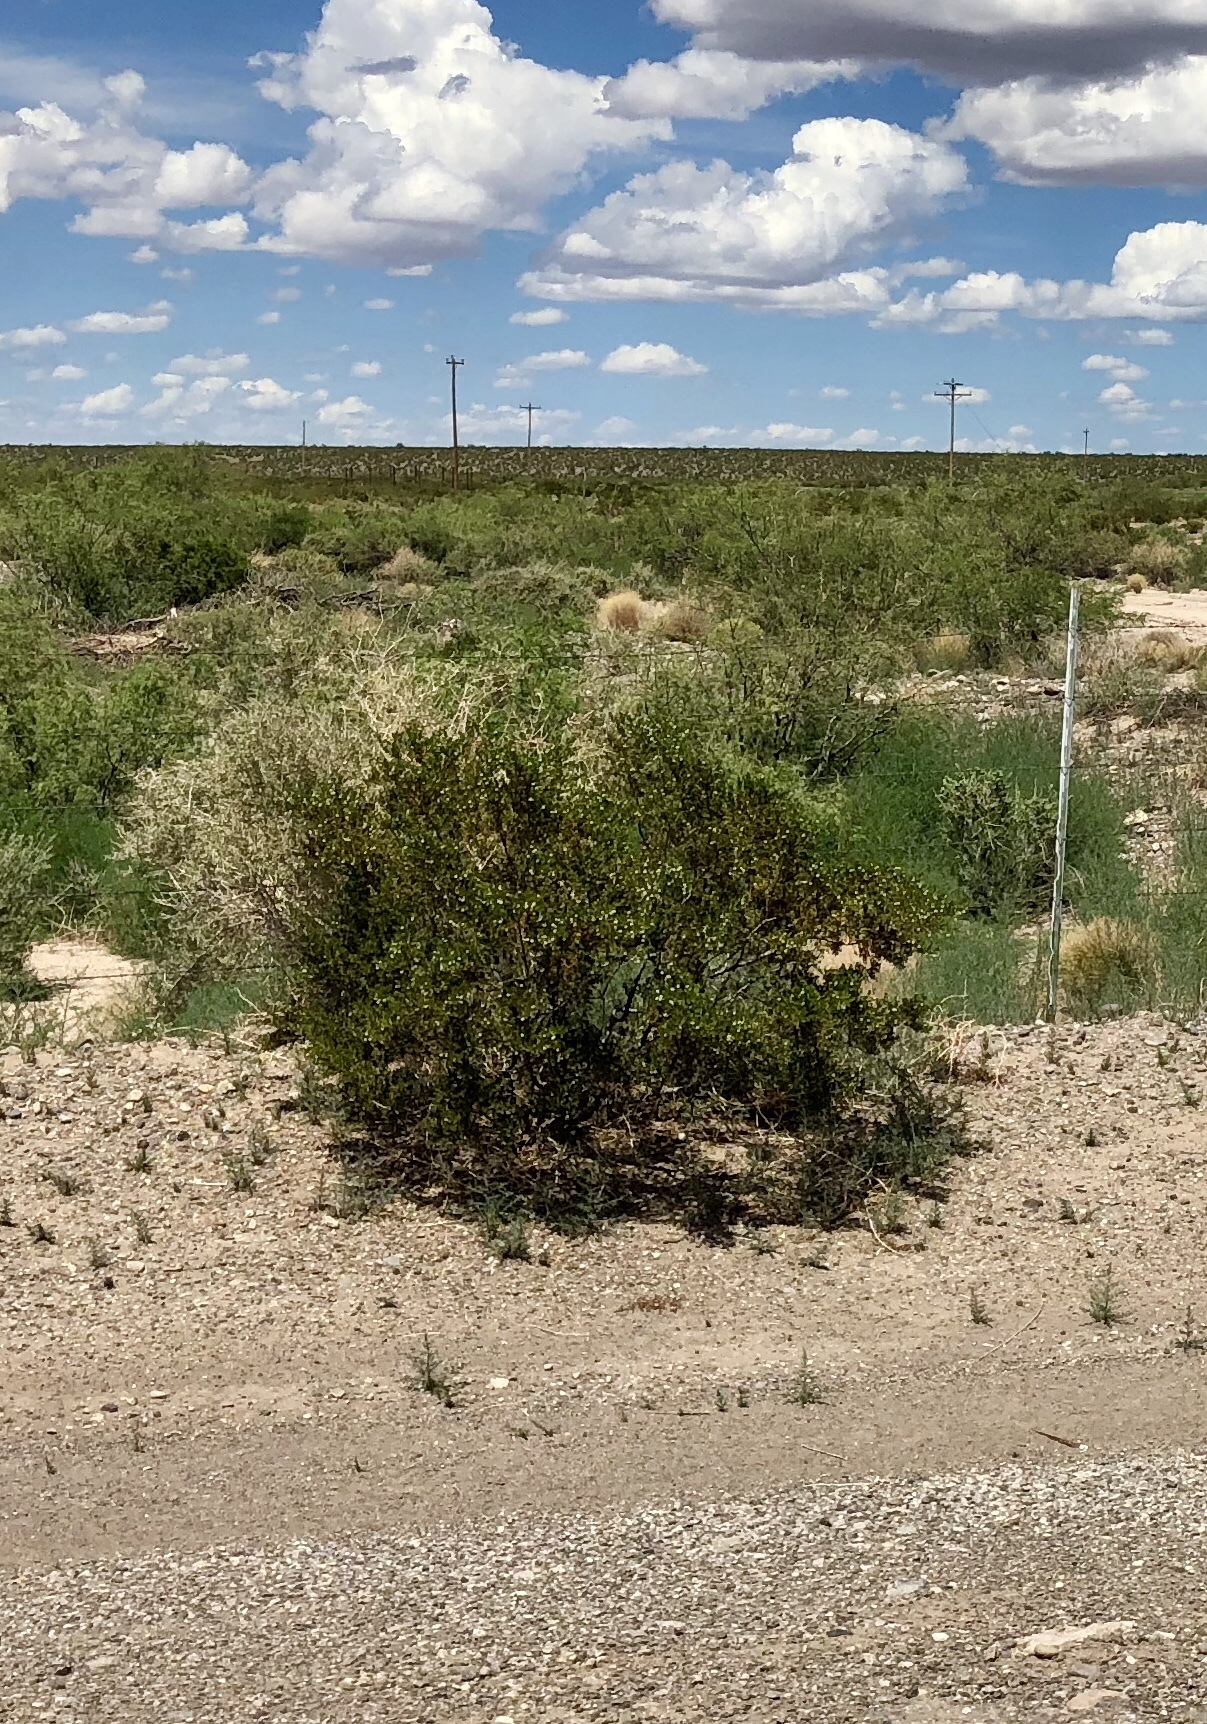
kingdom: Plantae
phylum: Tracheophyta
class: Magnoliopsida
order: Zygophyllales
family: Zygophyllaceae
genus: Larrea
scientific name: Larrea tridentata
